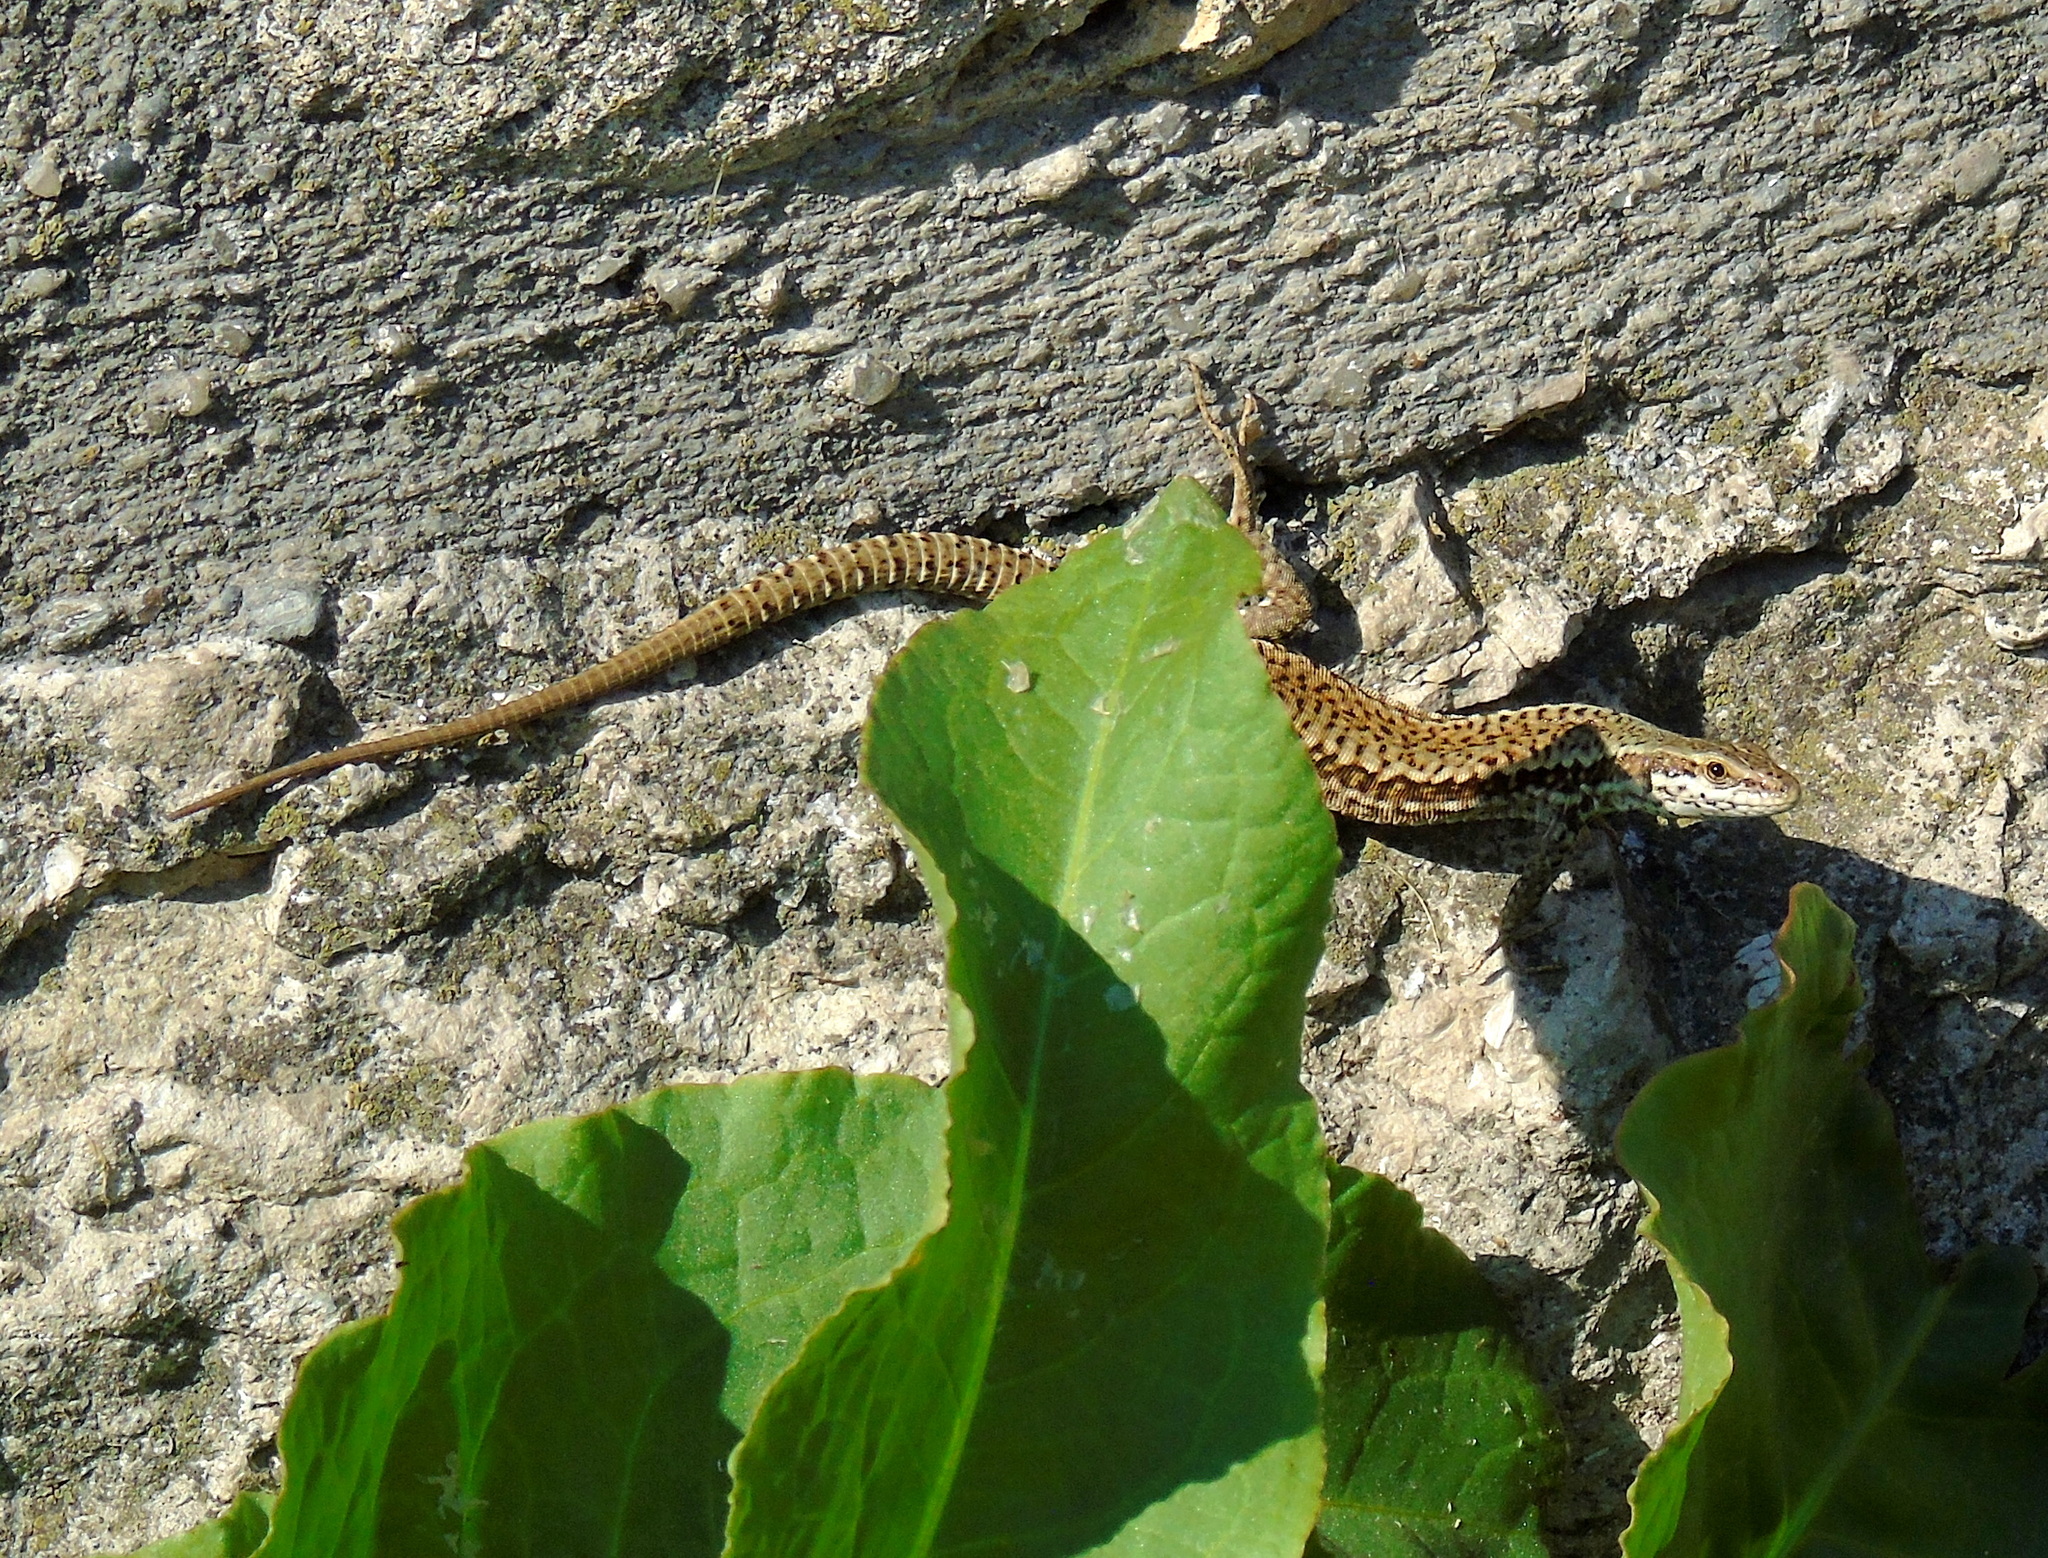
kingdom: Animalia
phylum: Chordata
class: Squamata
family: Lacertidae
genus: Podarcis
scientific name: Podarcis muralis
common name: Common wall lizard
